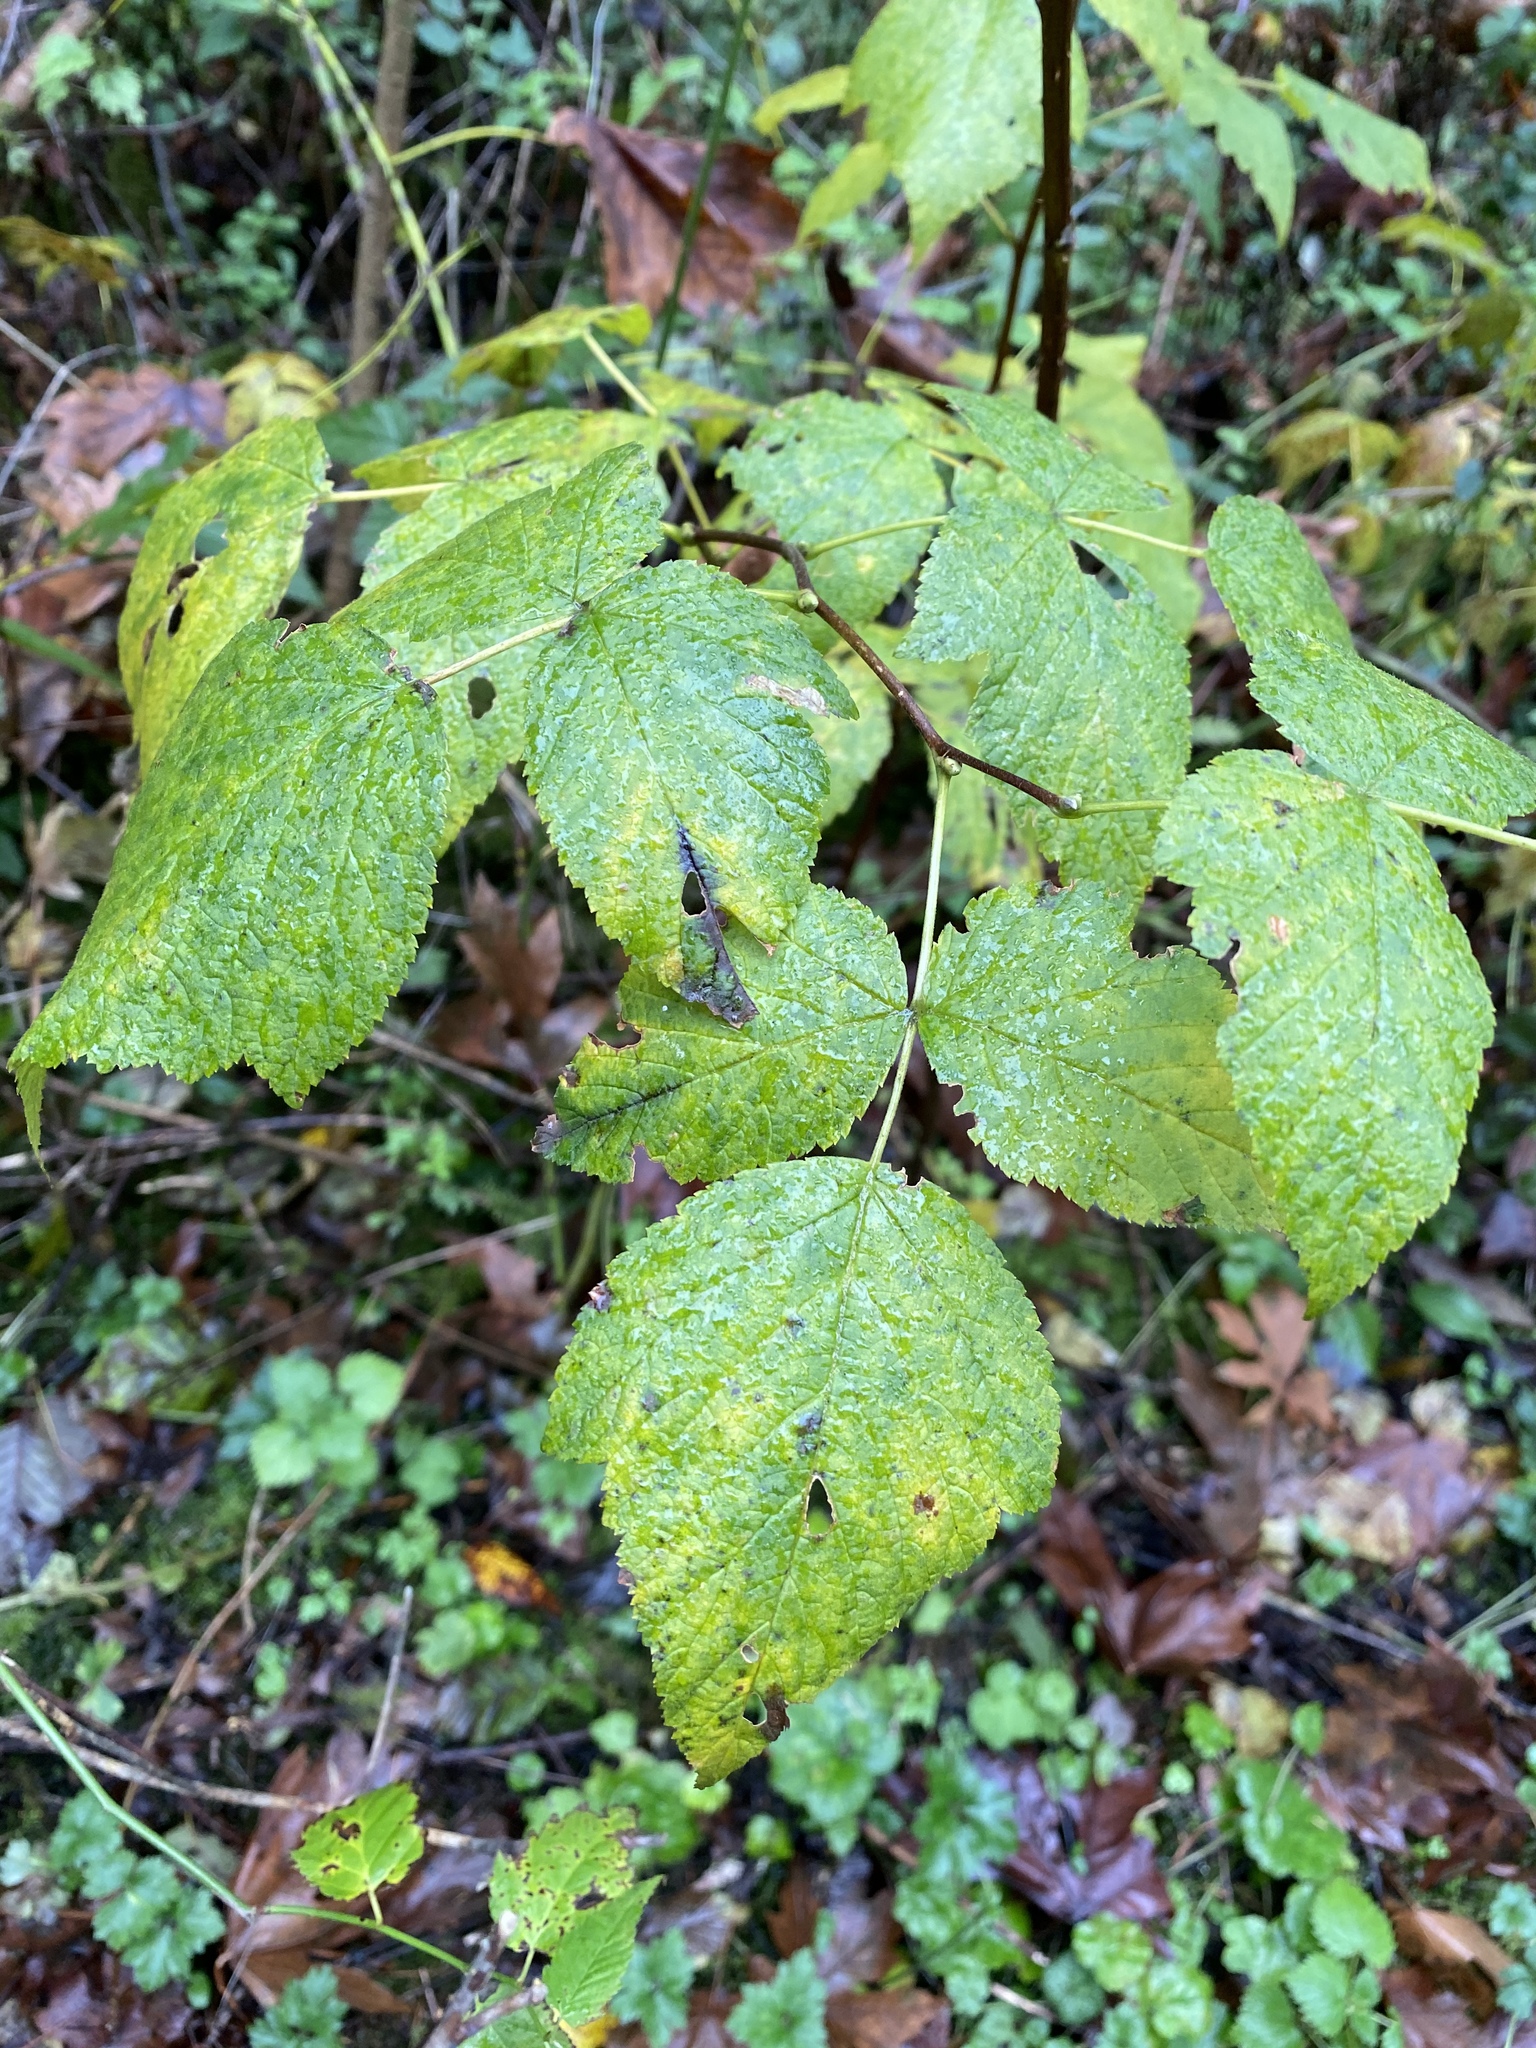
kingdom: Plantae
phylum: Tracheophyta
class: Magnoliopsida
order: Rosales
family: Rosaceae
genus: Rubus
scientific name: Rubus spectabilis
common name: Salmonberry
